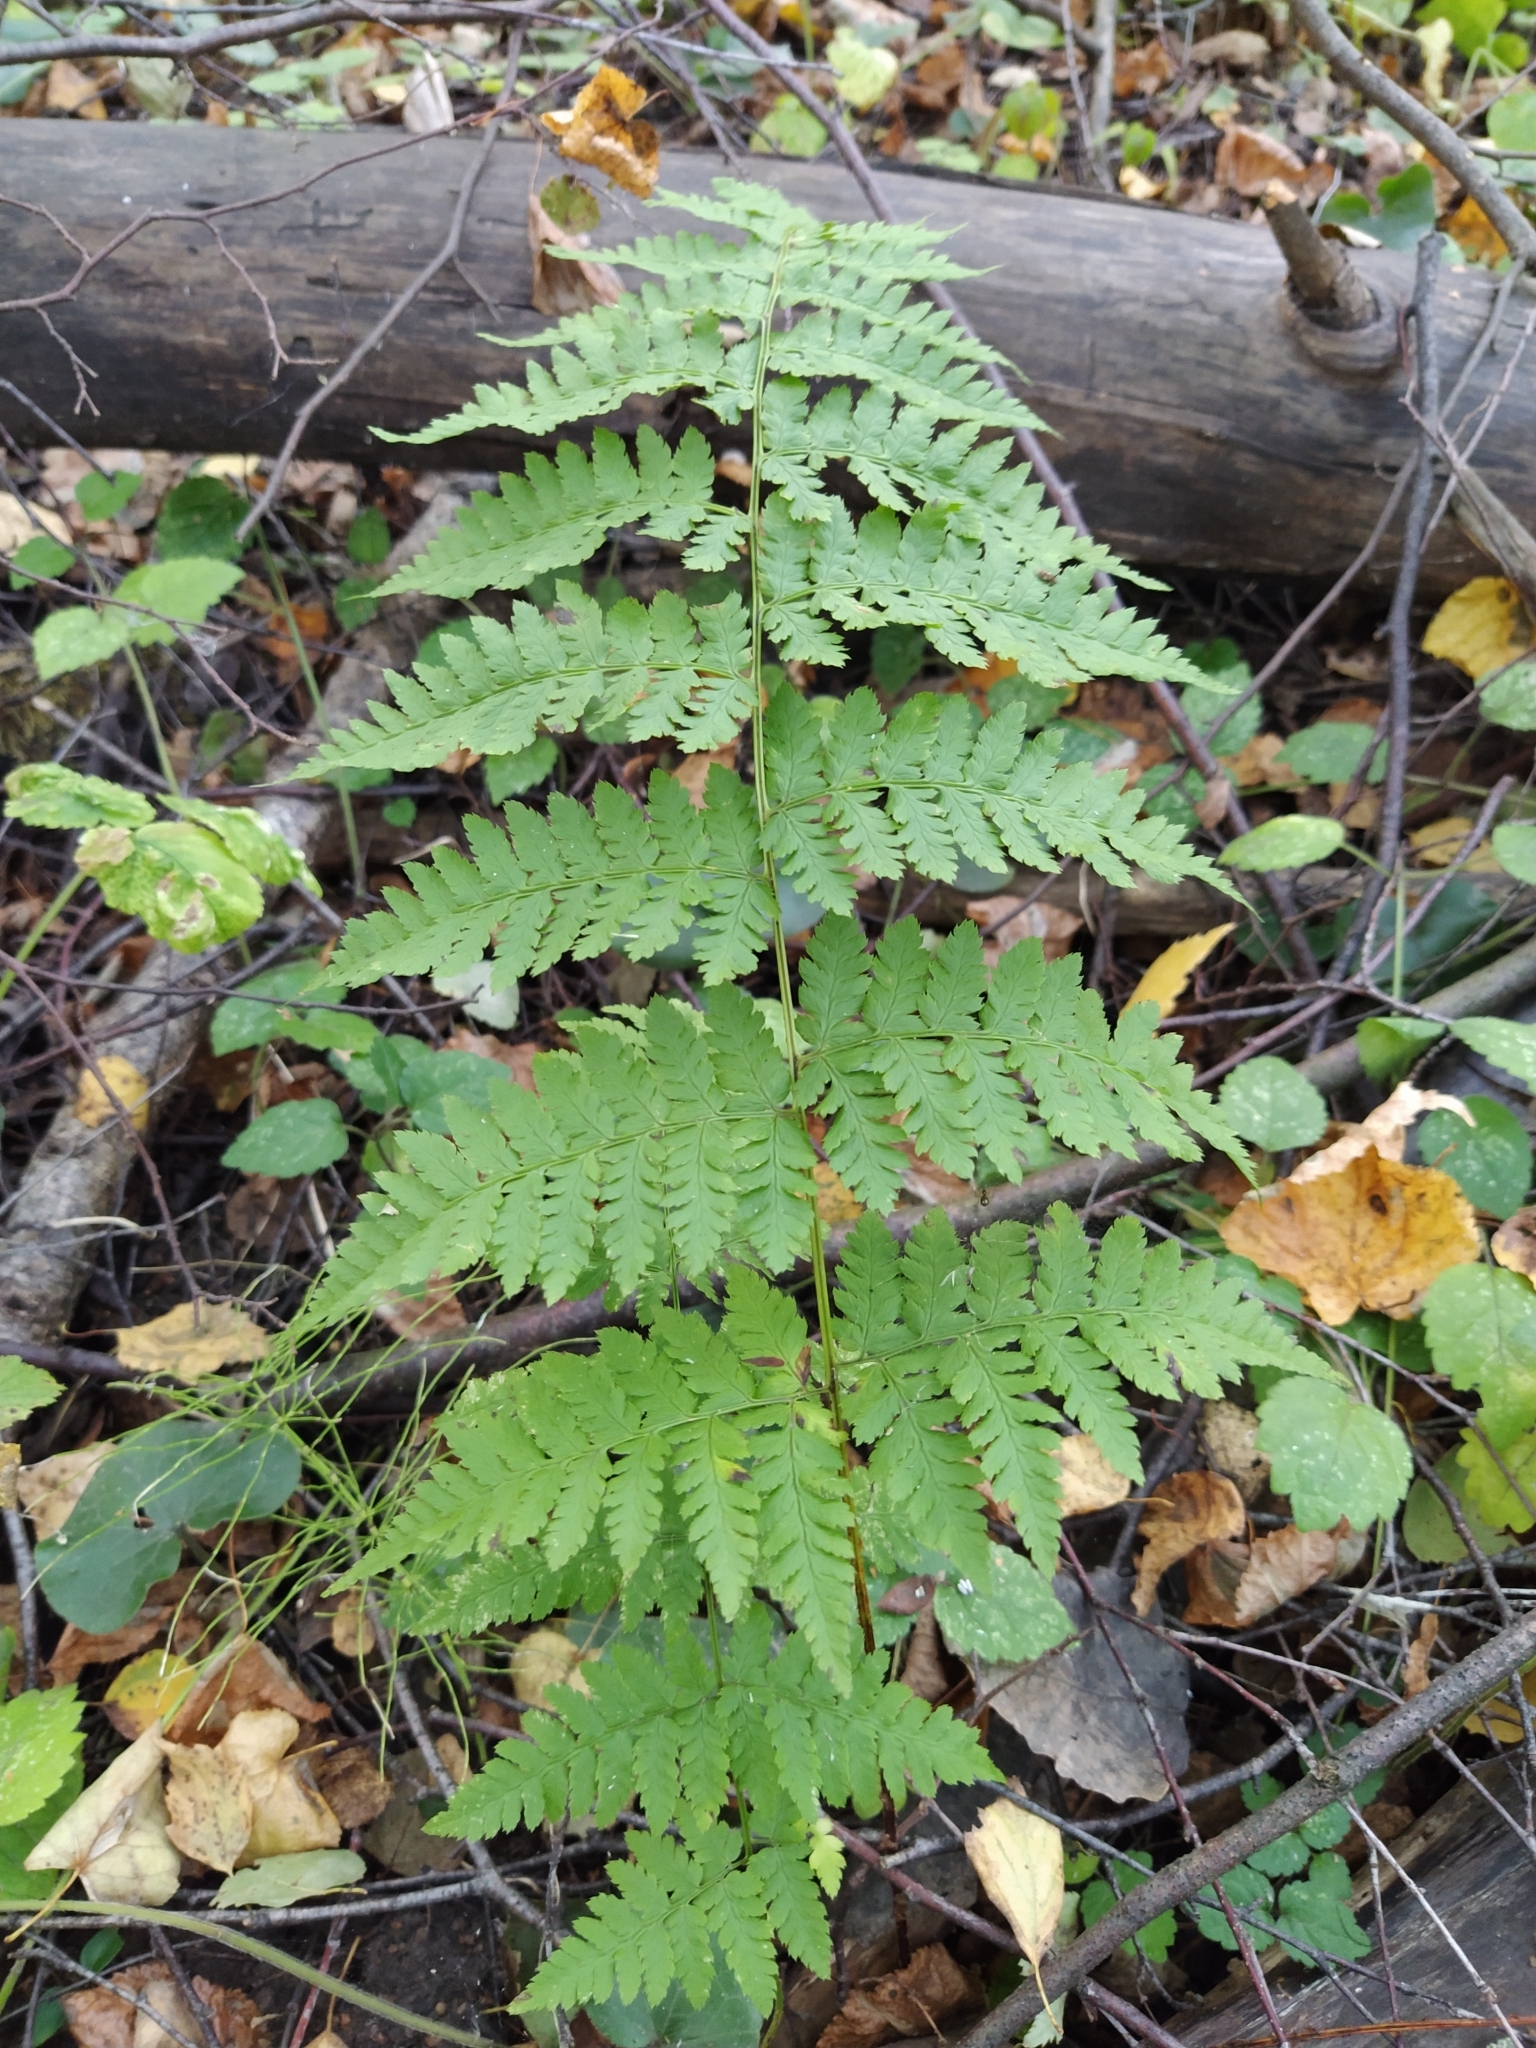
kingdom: Plantae
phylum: Tracheophyta
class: Polypodiopsida
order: Polypodiales
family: Dryopteridaceae
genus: Dryopteris
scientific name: Dryopteris carthusiana
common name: Narrow buckler-fern
